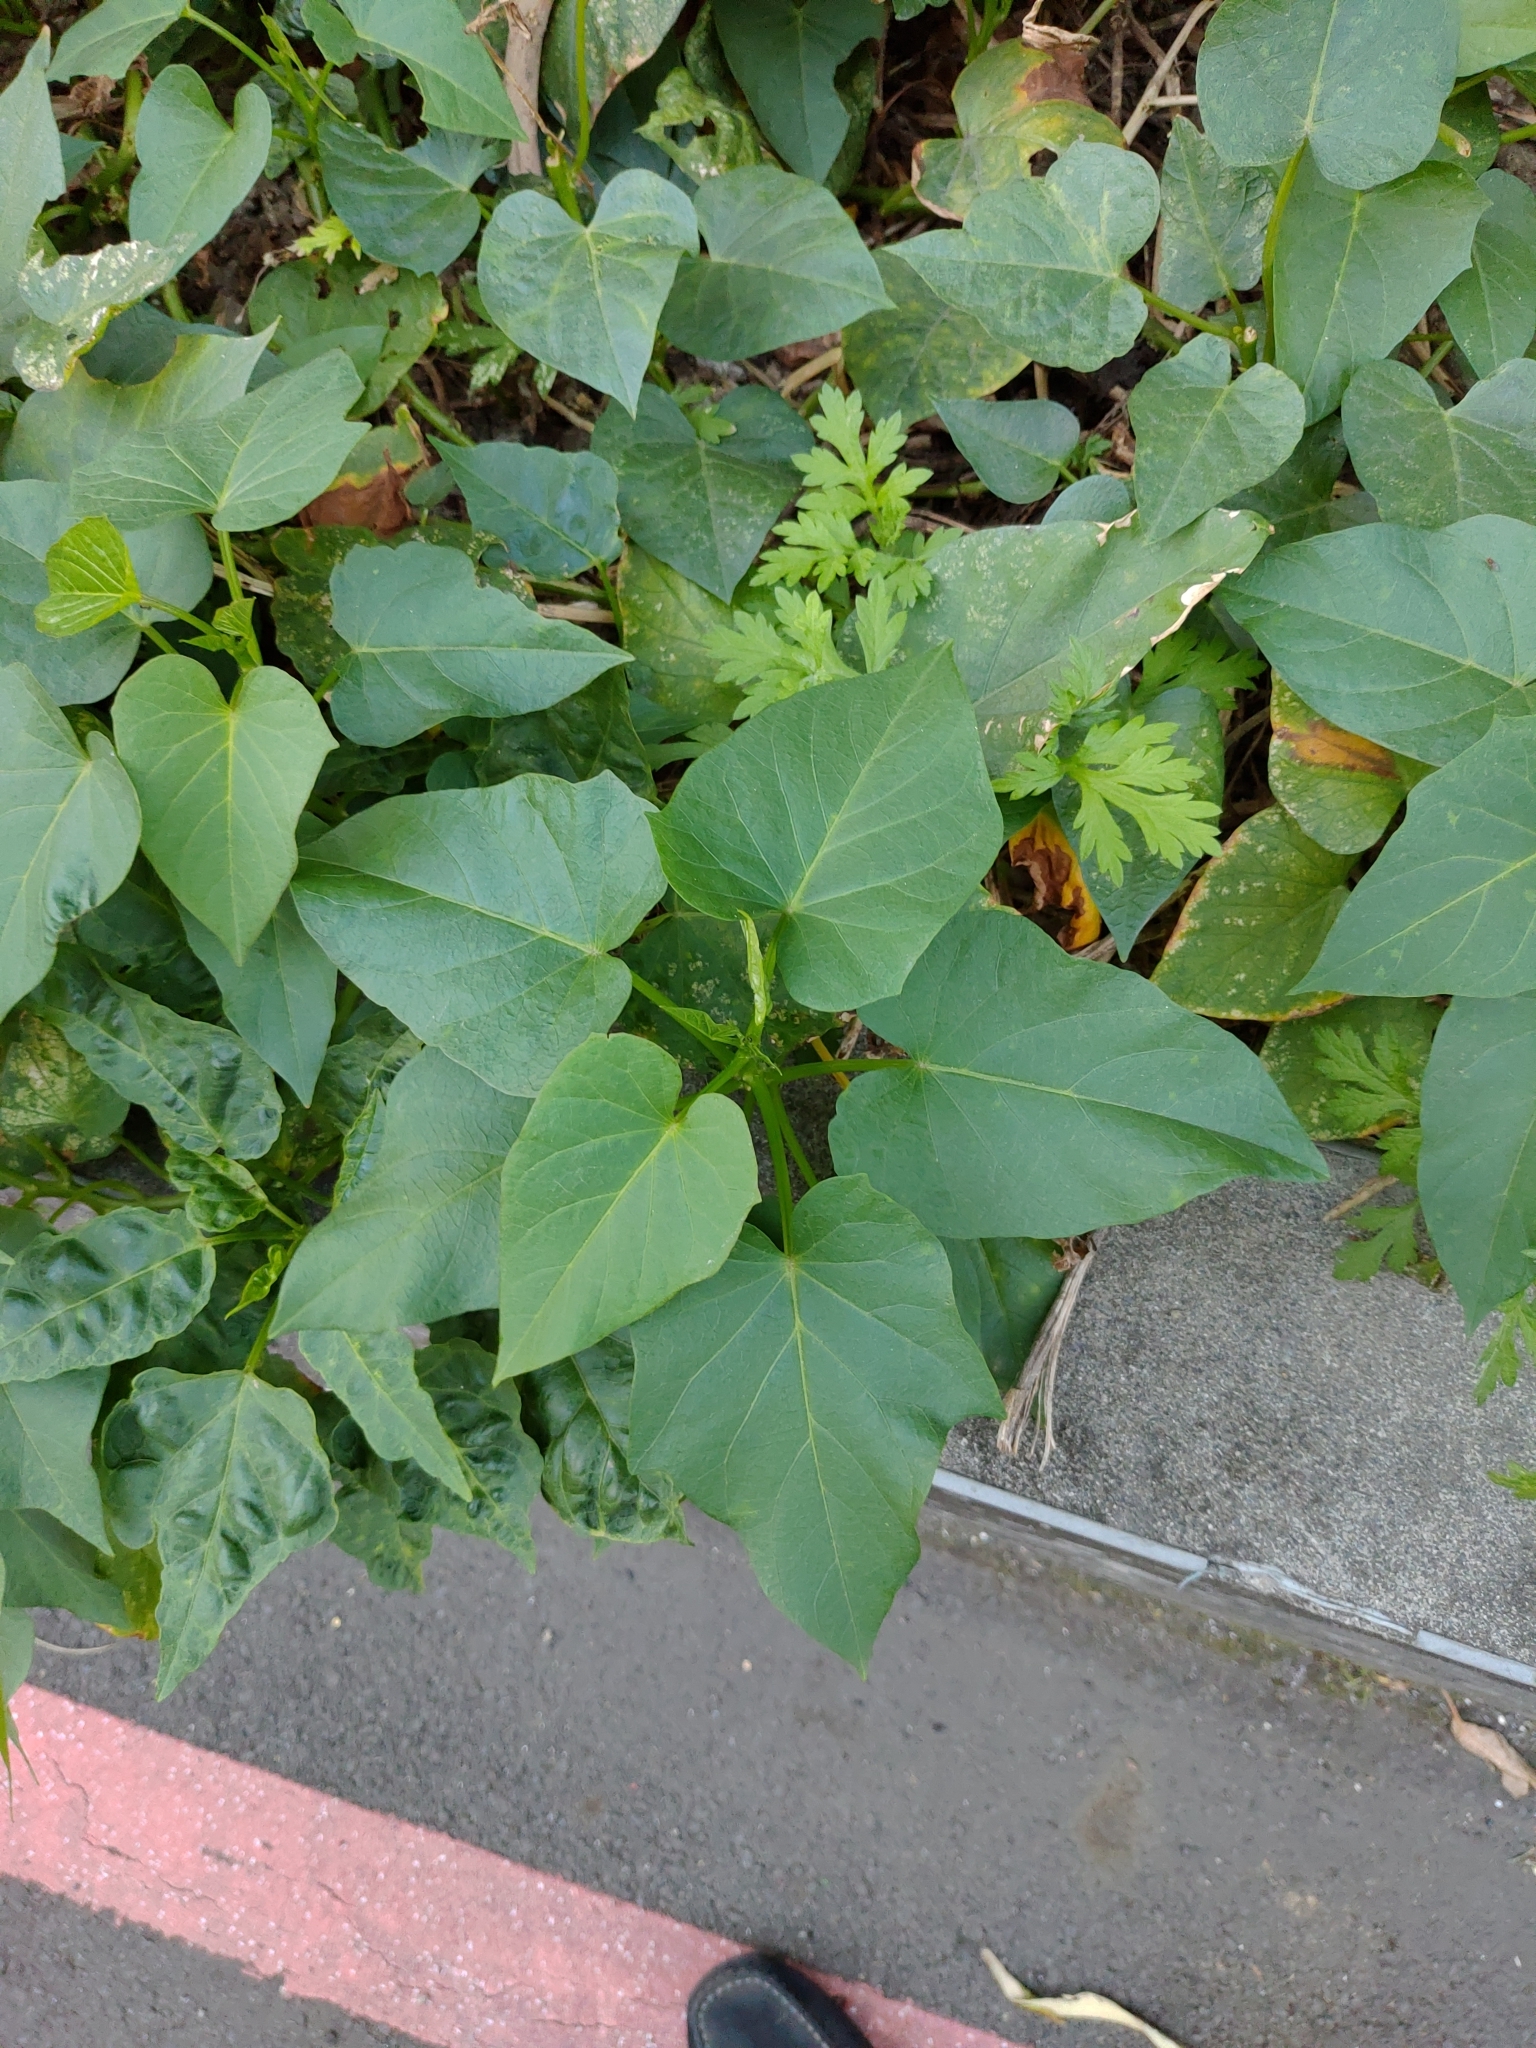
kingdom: Plantae
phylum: Tracheophyta
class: Magnoliopsida
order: Solanales
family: Convolvulaceae
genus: Ipomoea
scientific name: Ipomoea batatas
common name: Sweet-potato
